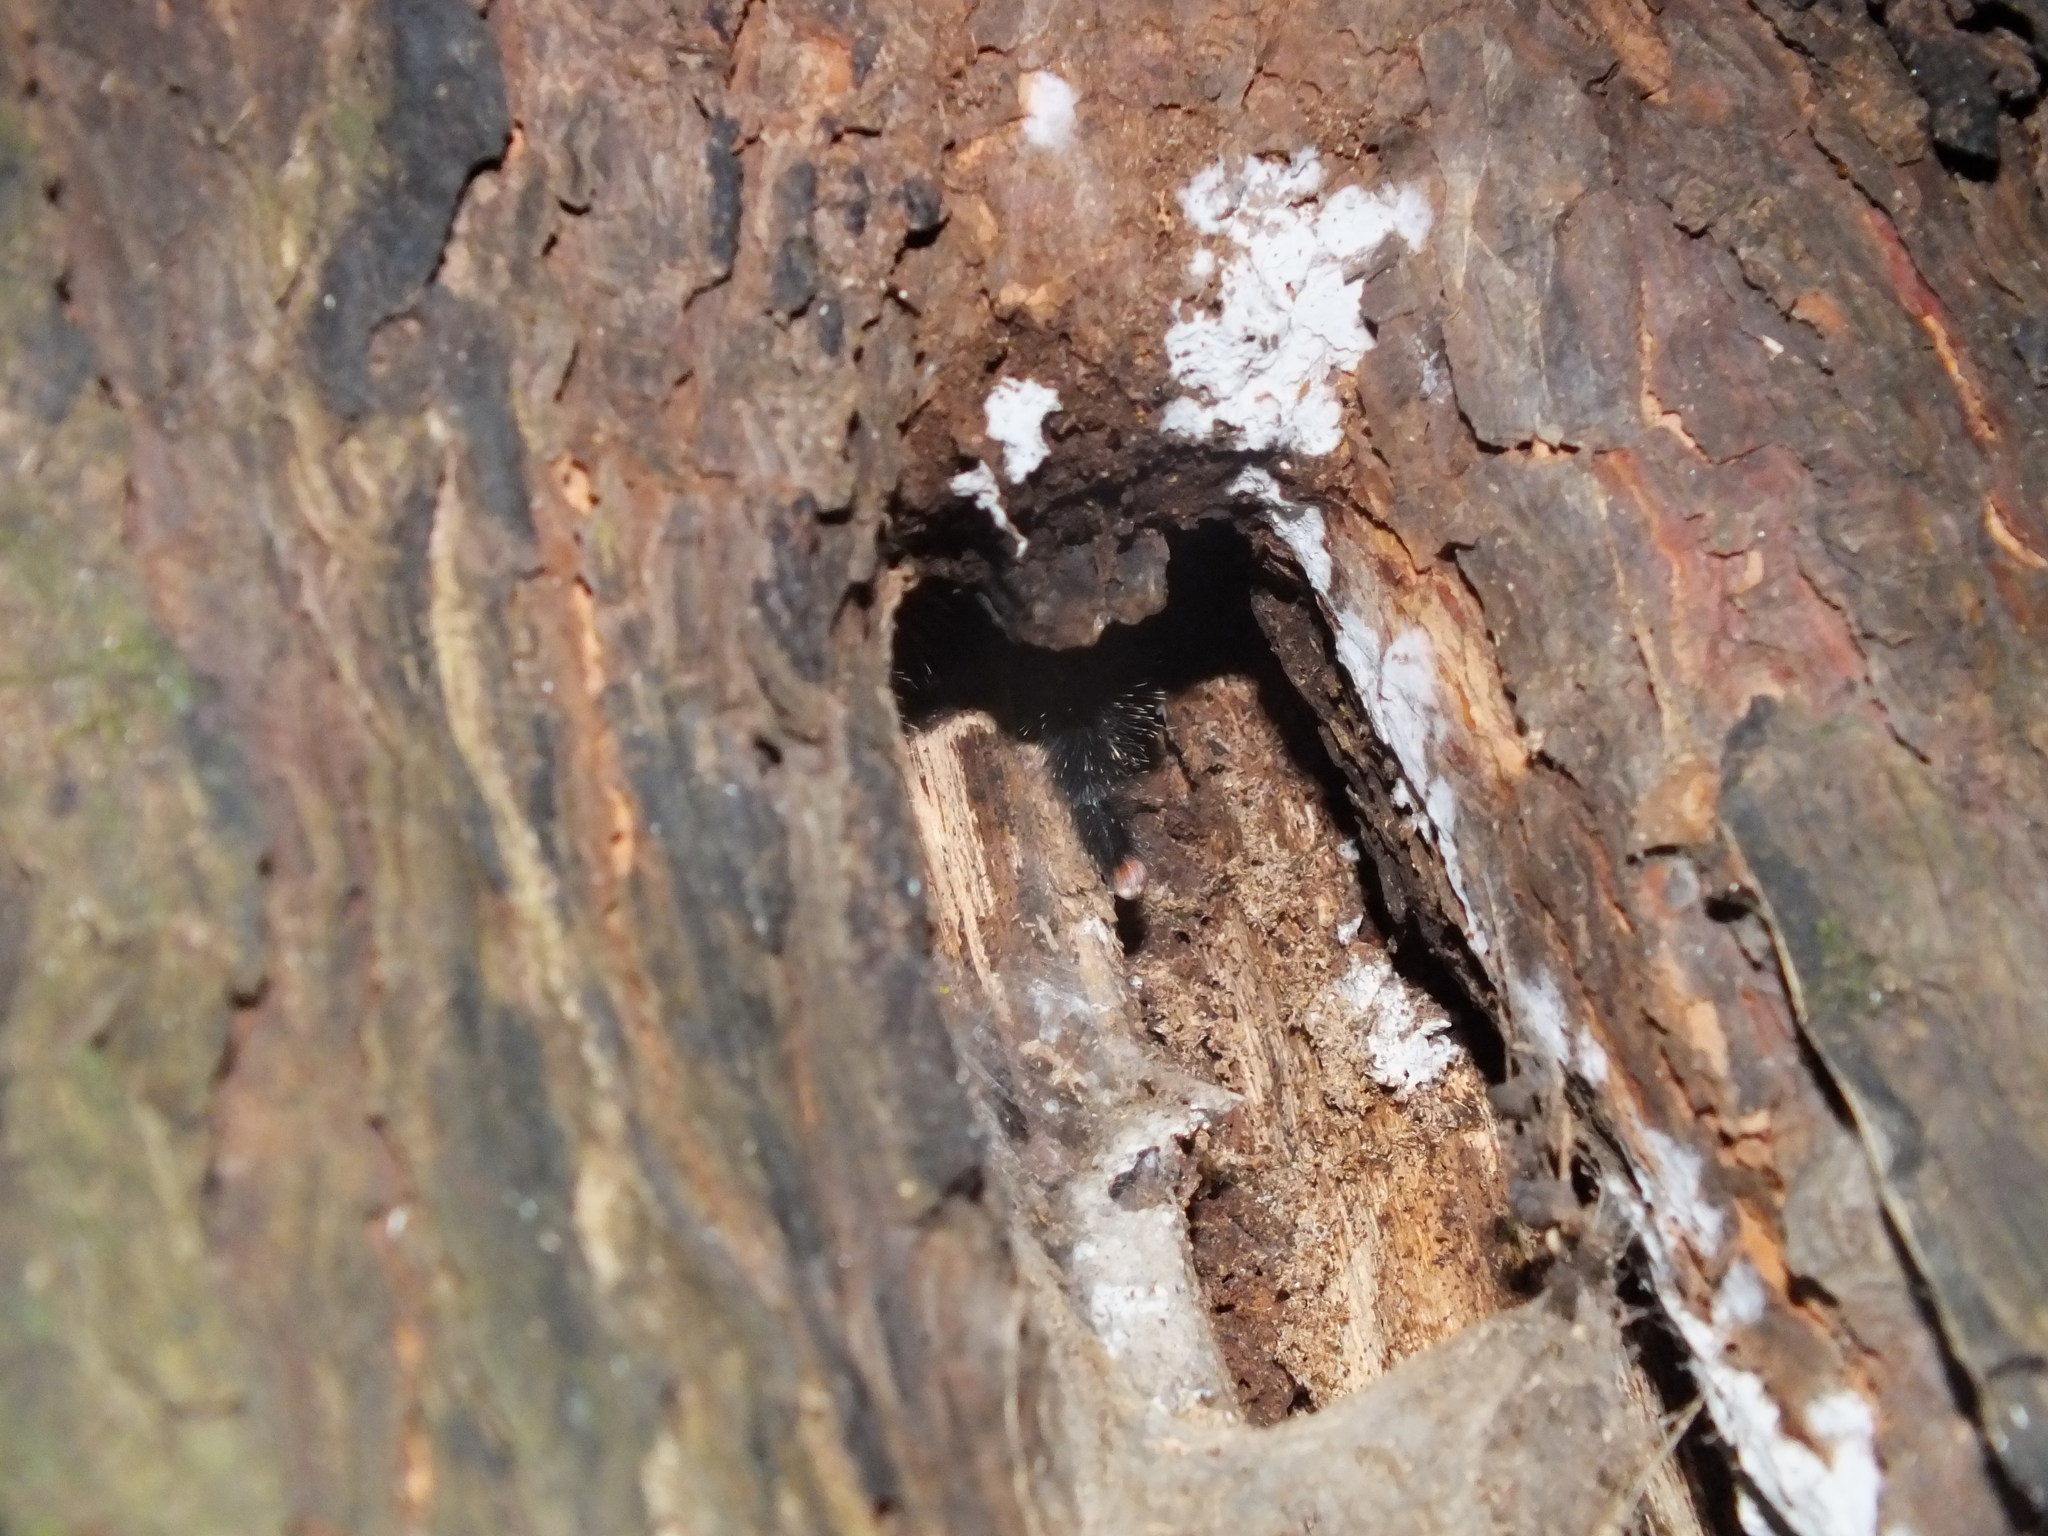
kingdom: Animalia
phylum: Arthropoda
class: Arachnida
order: Araneae
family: Theraphosidae
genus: Avicularia
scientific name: Avicularia juruensis
